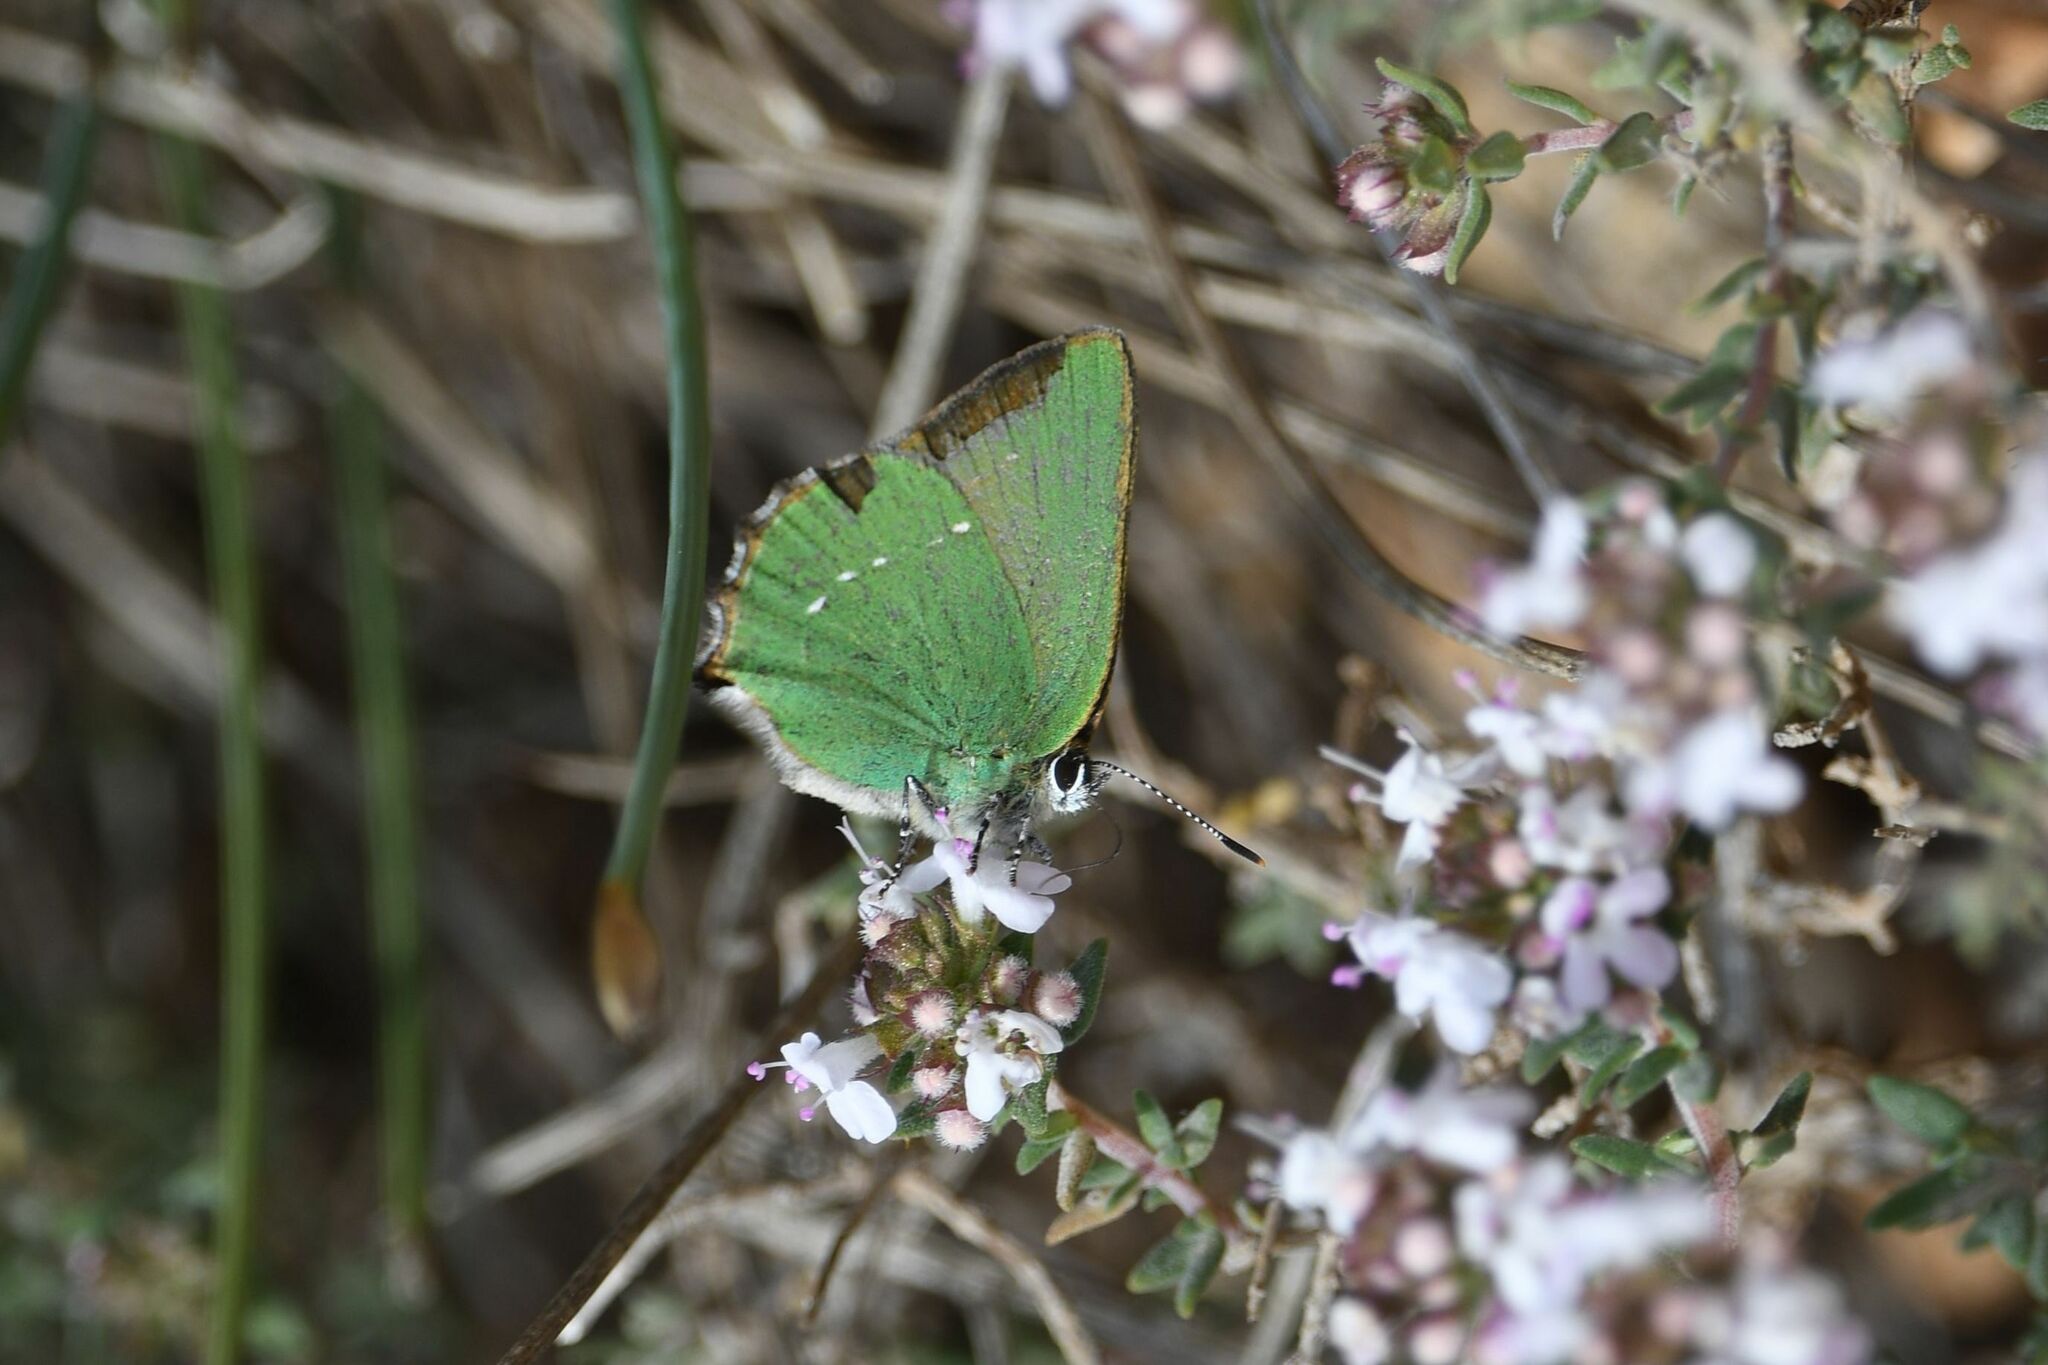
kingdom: Animalia
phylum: Arthropoda
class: Insecta
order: Lepidoptera
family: Lycaenidae
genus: Callophrys
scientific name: Callophrys rubi
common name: Green hairstreak
